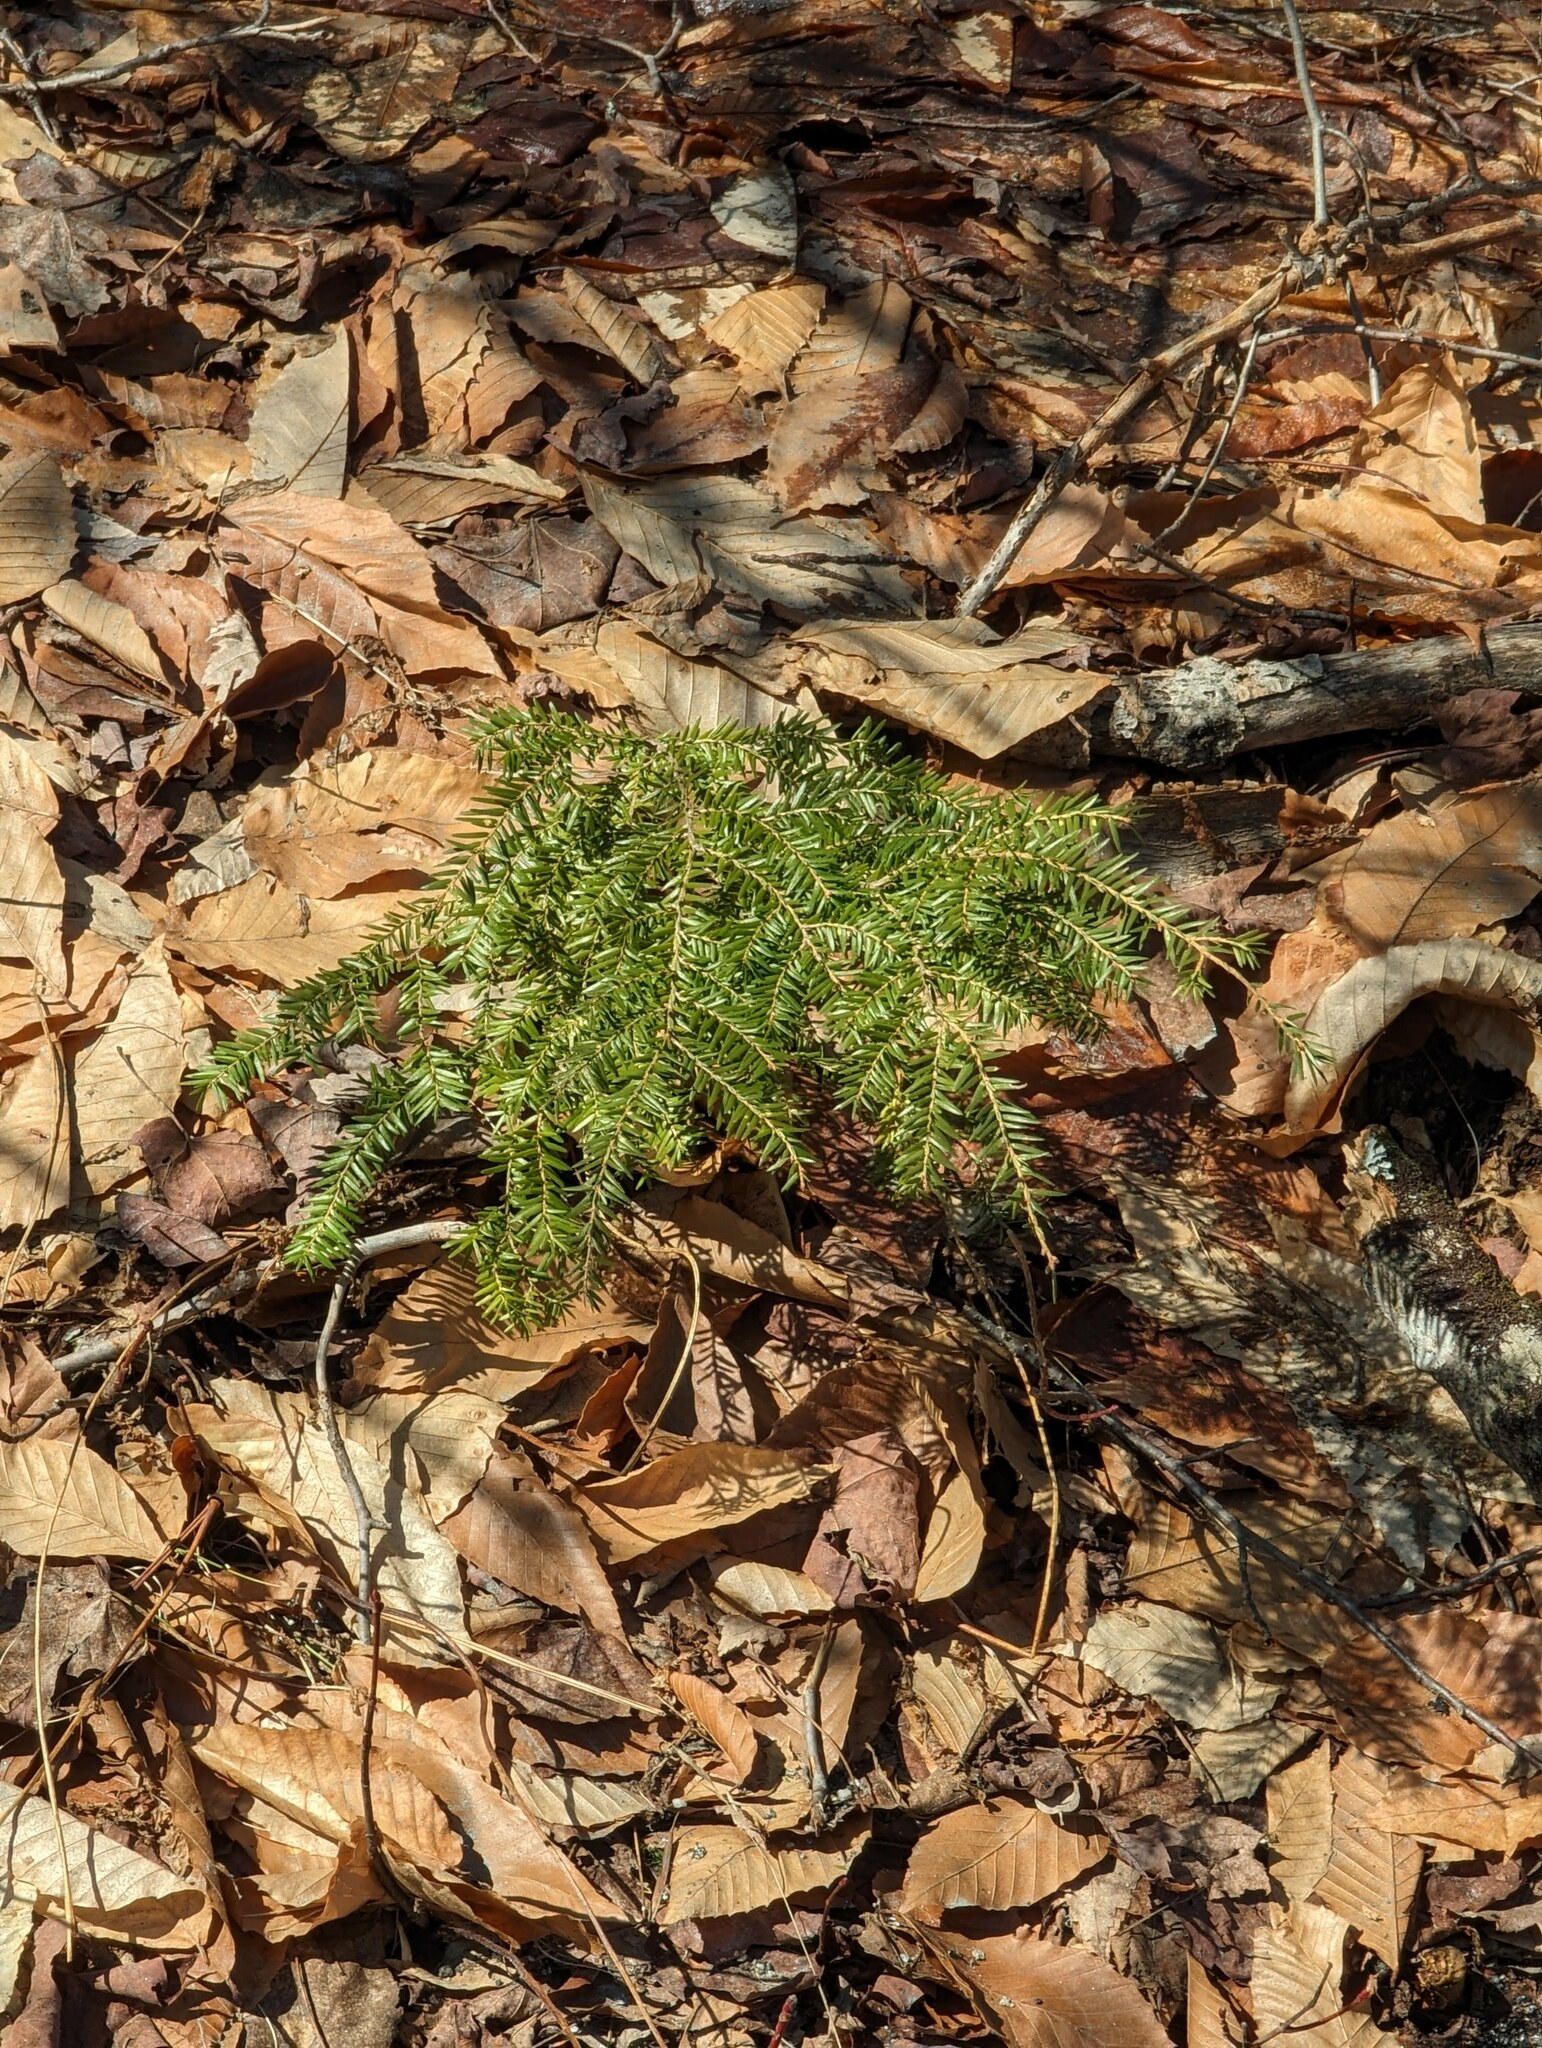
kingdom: Plantae
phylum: Tracheophyta
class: Pinopsida
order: Pinales
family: Pinaceae
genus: Tsuga
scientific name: Tsuga canadensis
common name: Eastern hemlock
